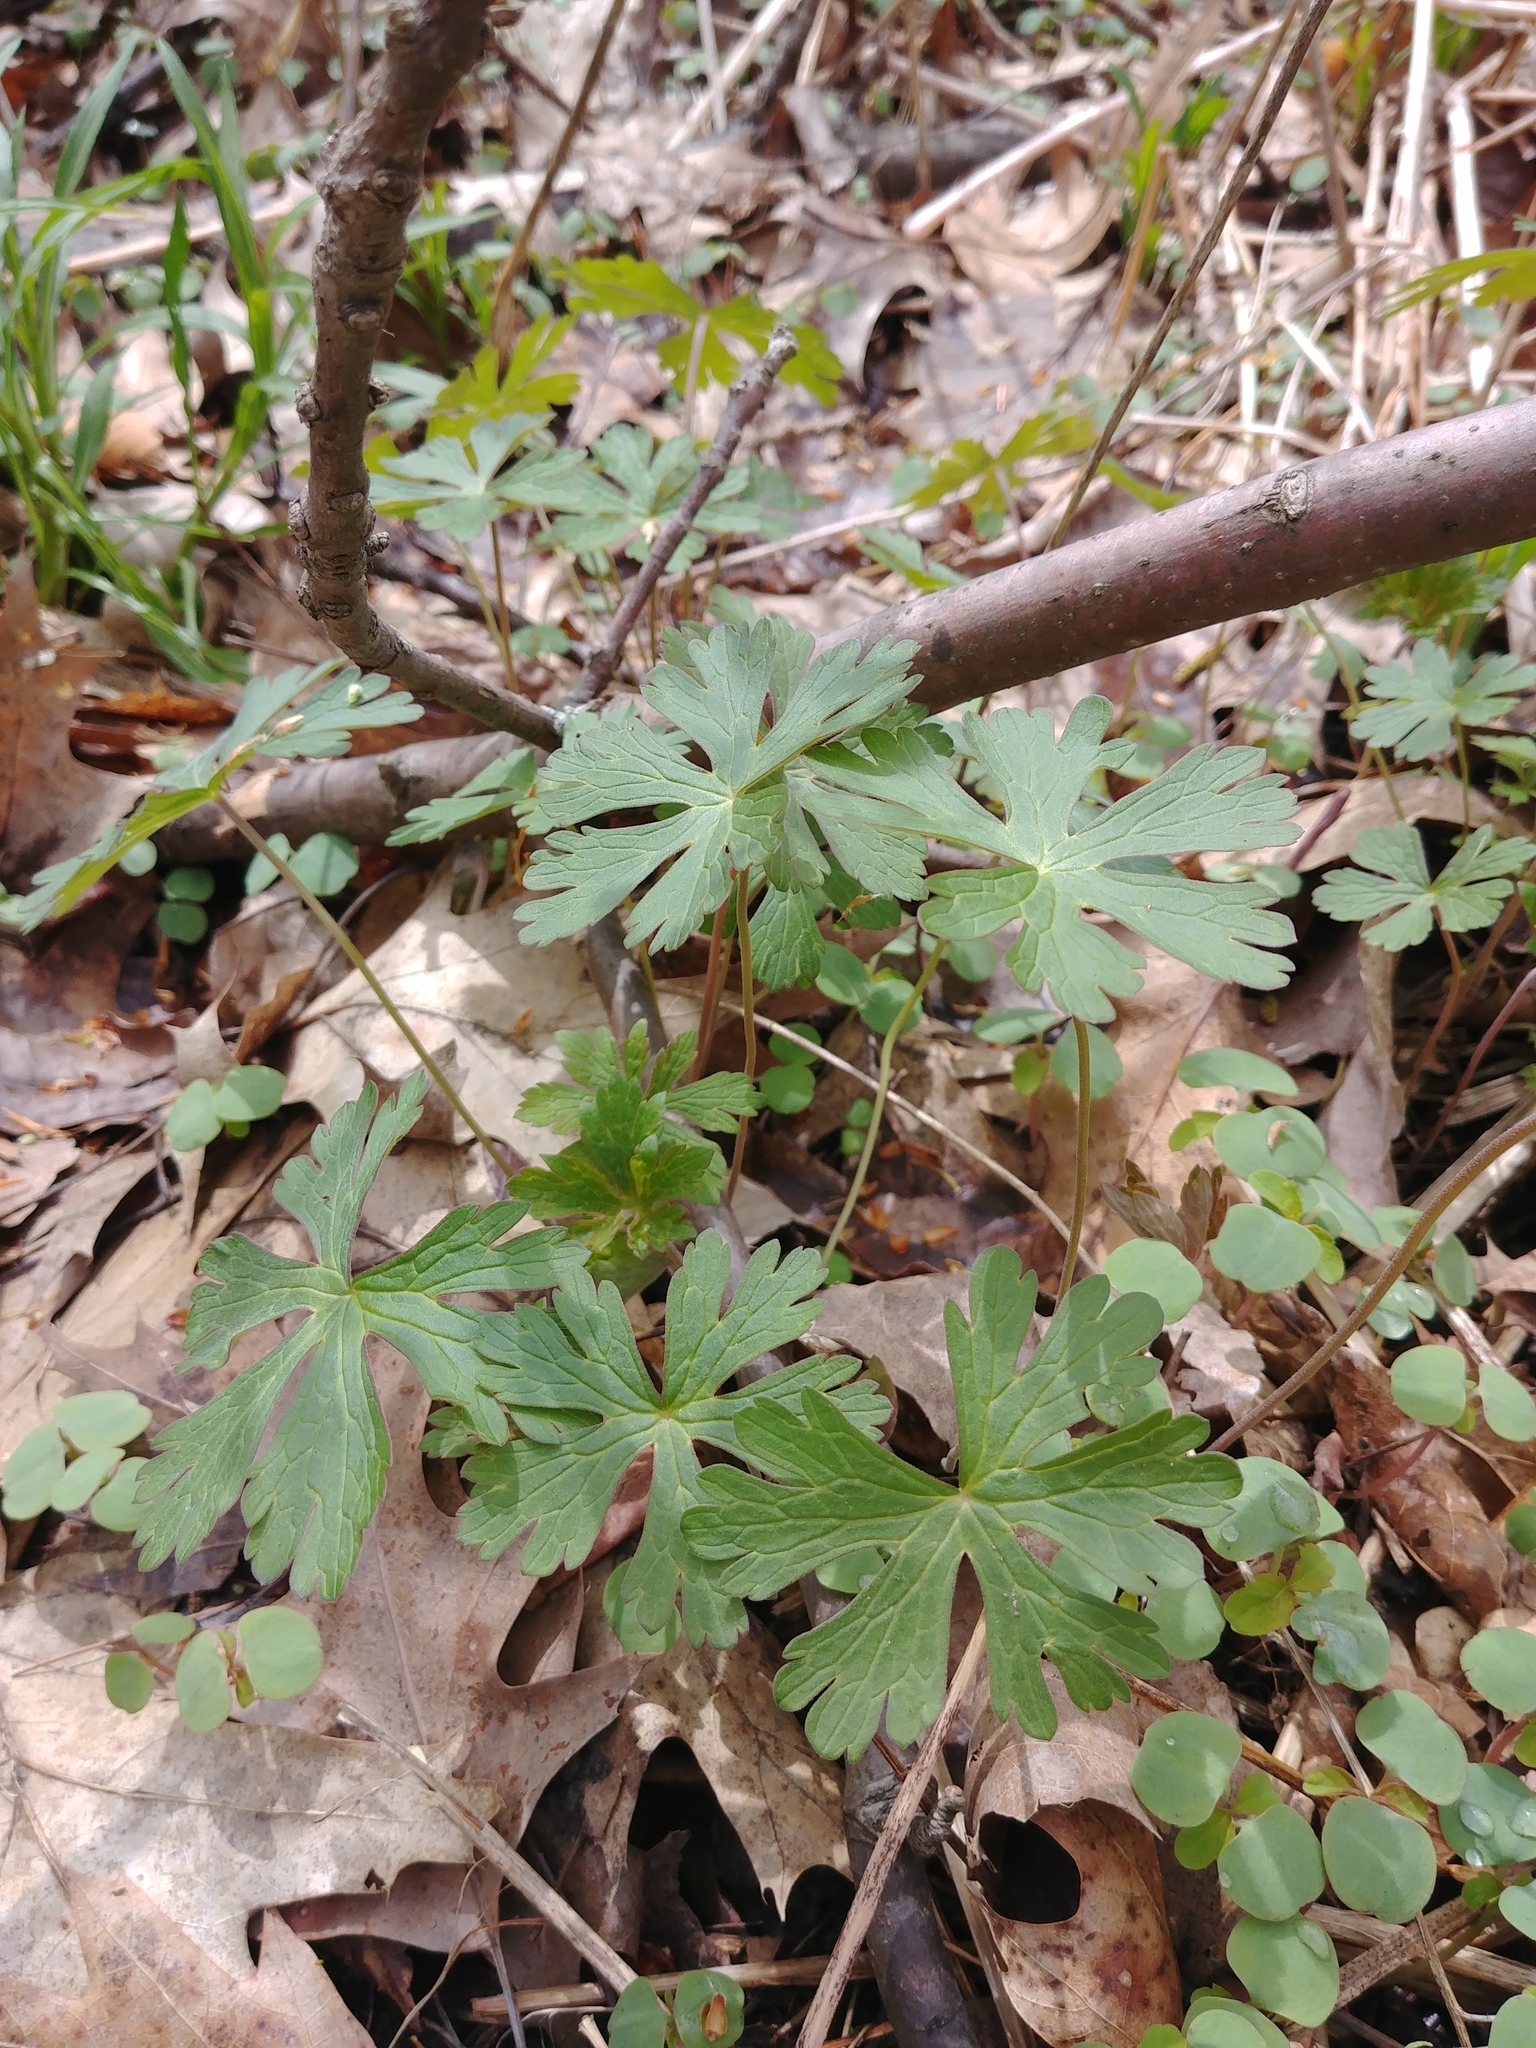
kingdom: Plantae
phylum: Tracheophyta
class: Magnoliopsida
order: Geraniales
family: Geraniaceae
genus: Geranium
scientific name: Geranium maculatum
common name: Spotted geranium
